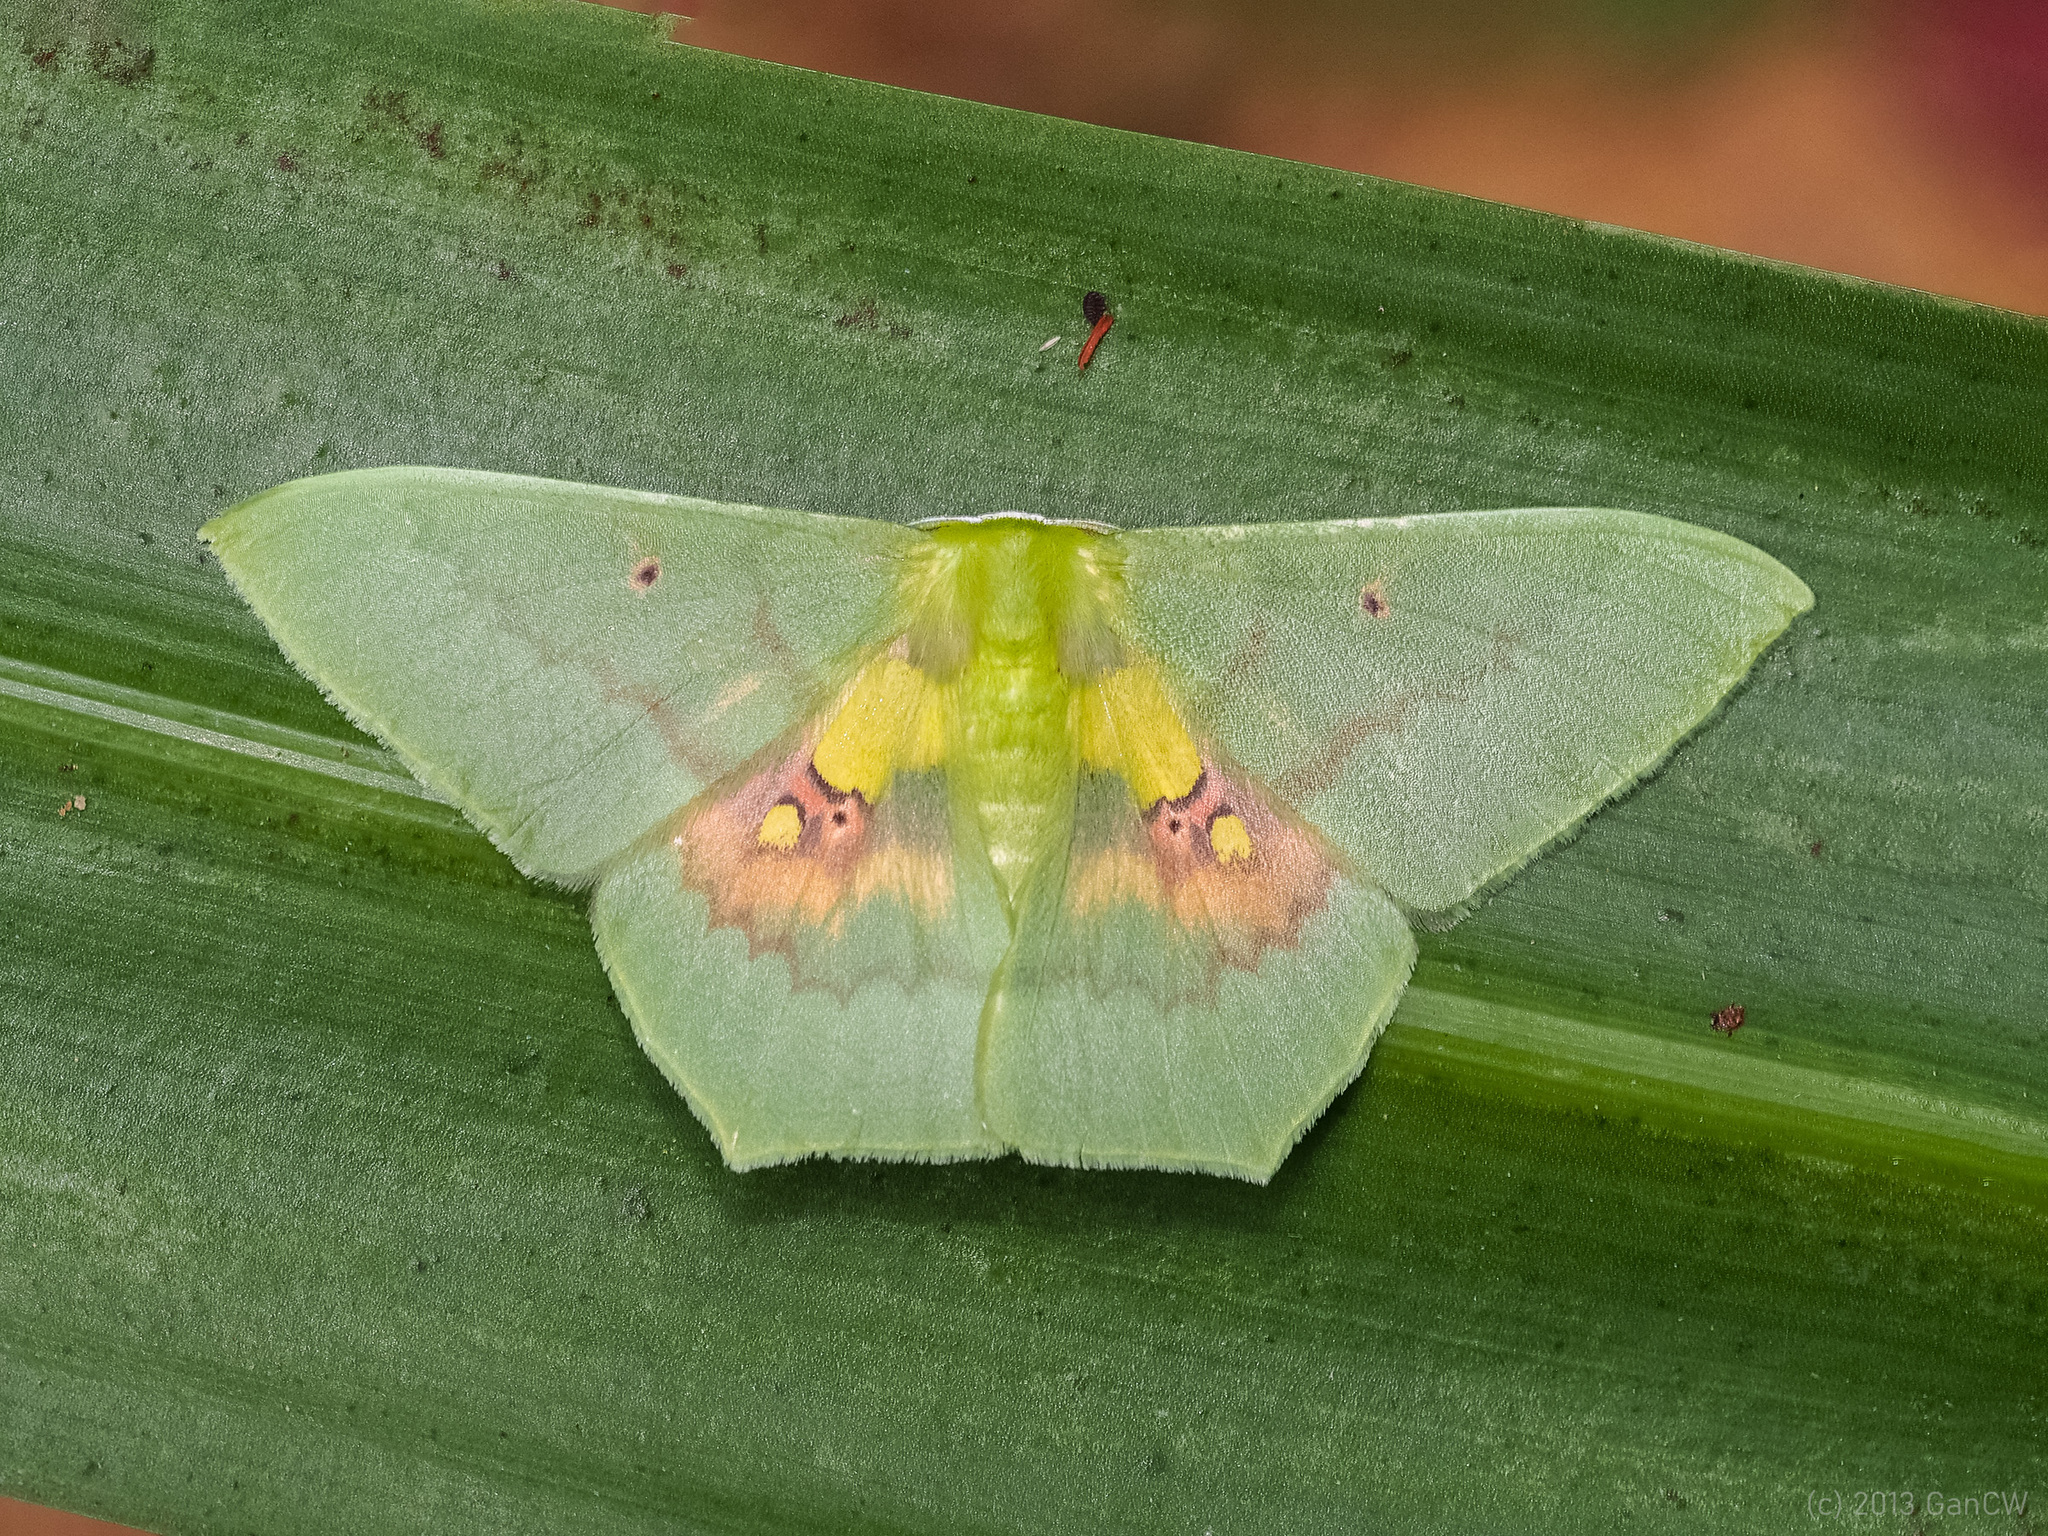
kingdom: Animalia
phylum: Arthropoda
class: Insecta
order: Lepidoptera
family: Geometridae
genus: Aporandria
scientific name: Aporandria specularia
